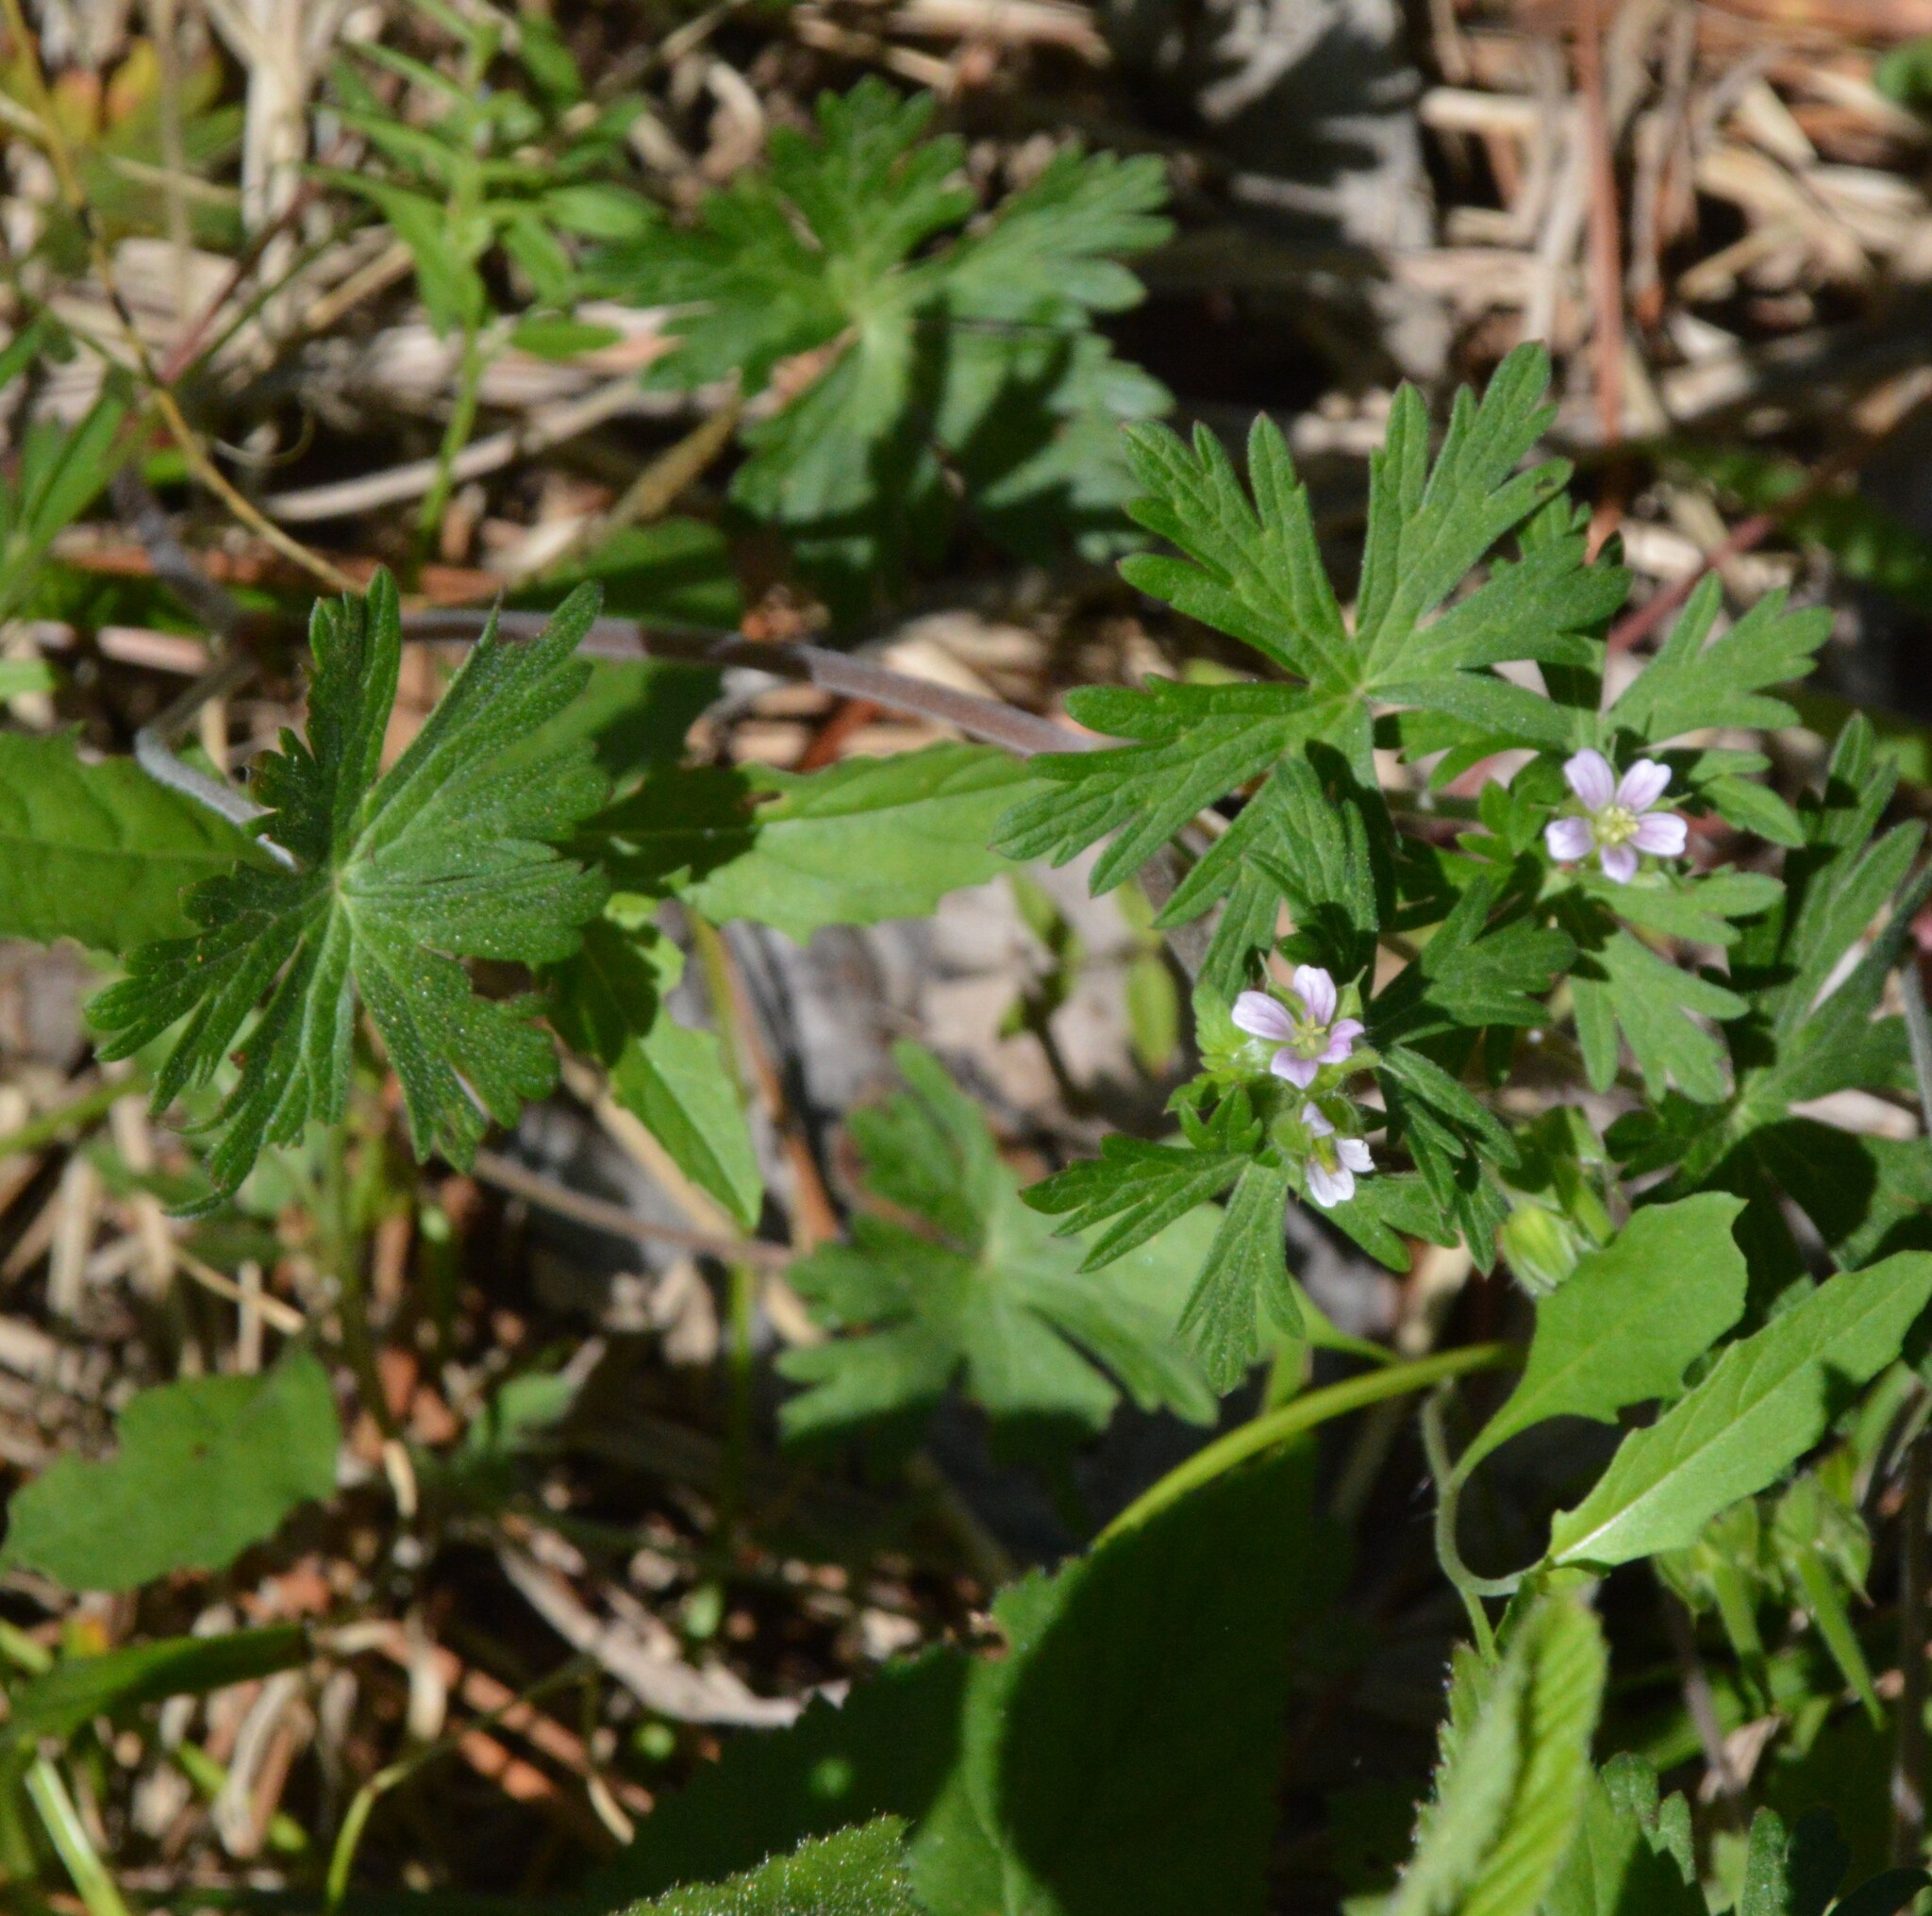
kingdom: Plantae
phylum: Tracheophyta
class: Magnoliopsida
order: Geraniales
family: Geraniaceae
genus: Geranium
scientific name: Geranium carolinianum
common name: Carolina crane's-bill
